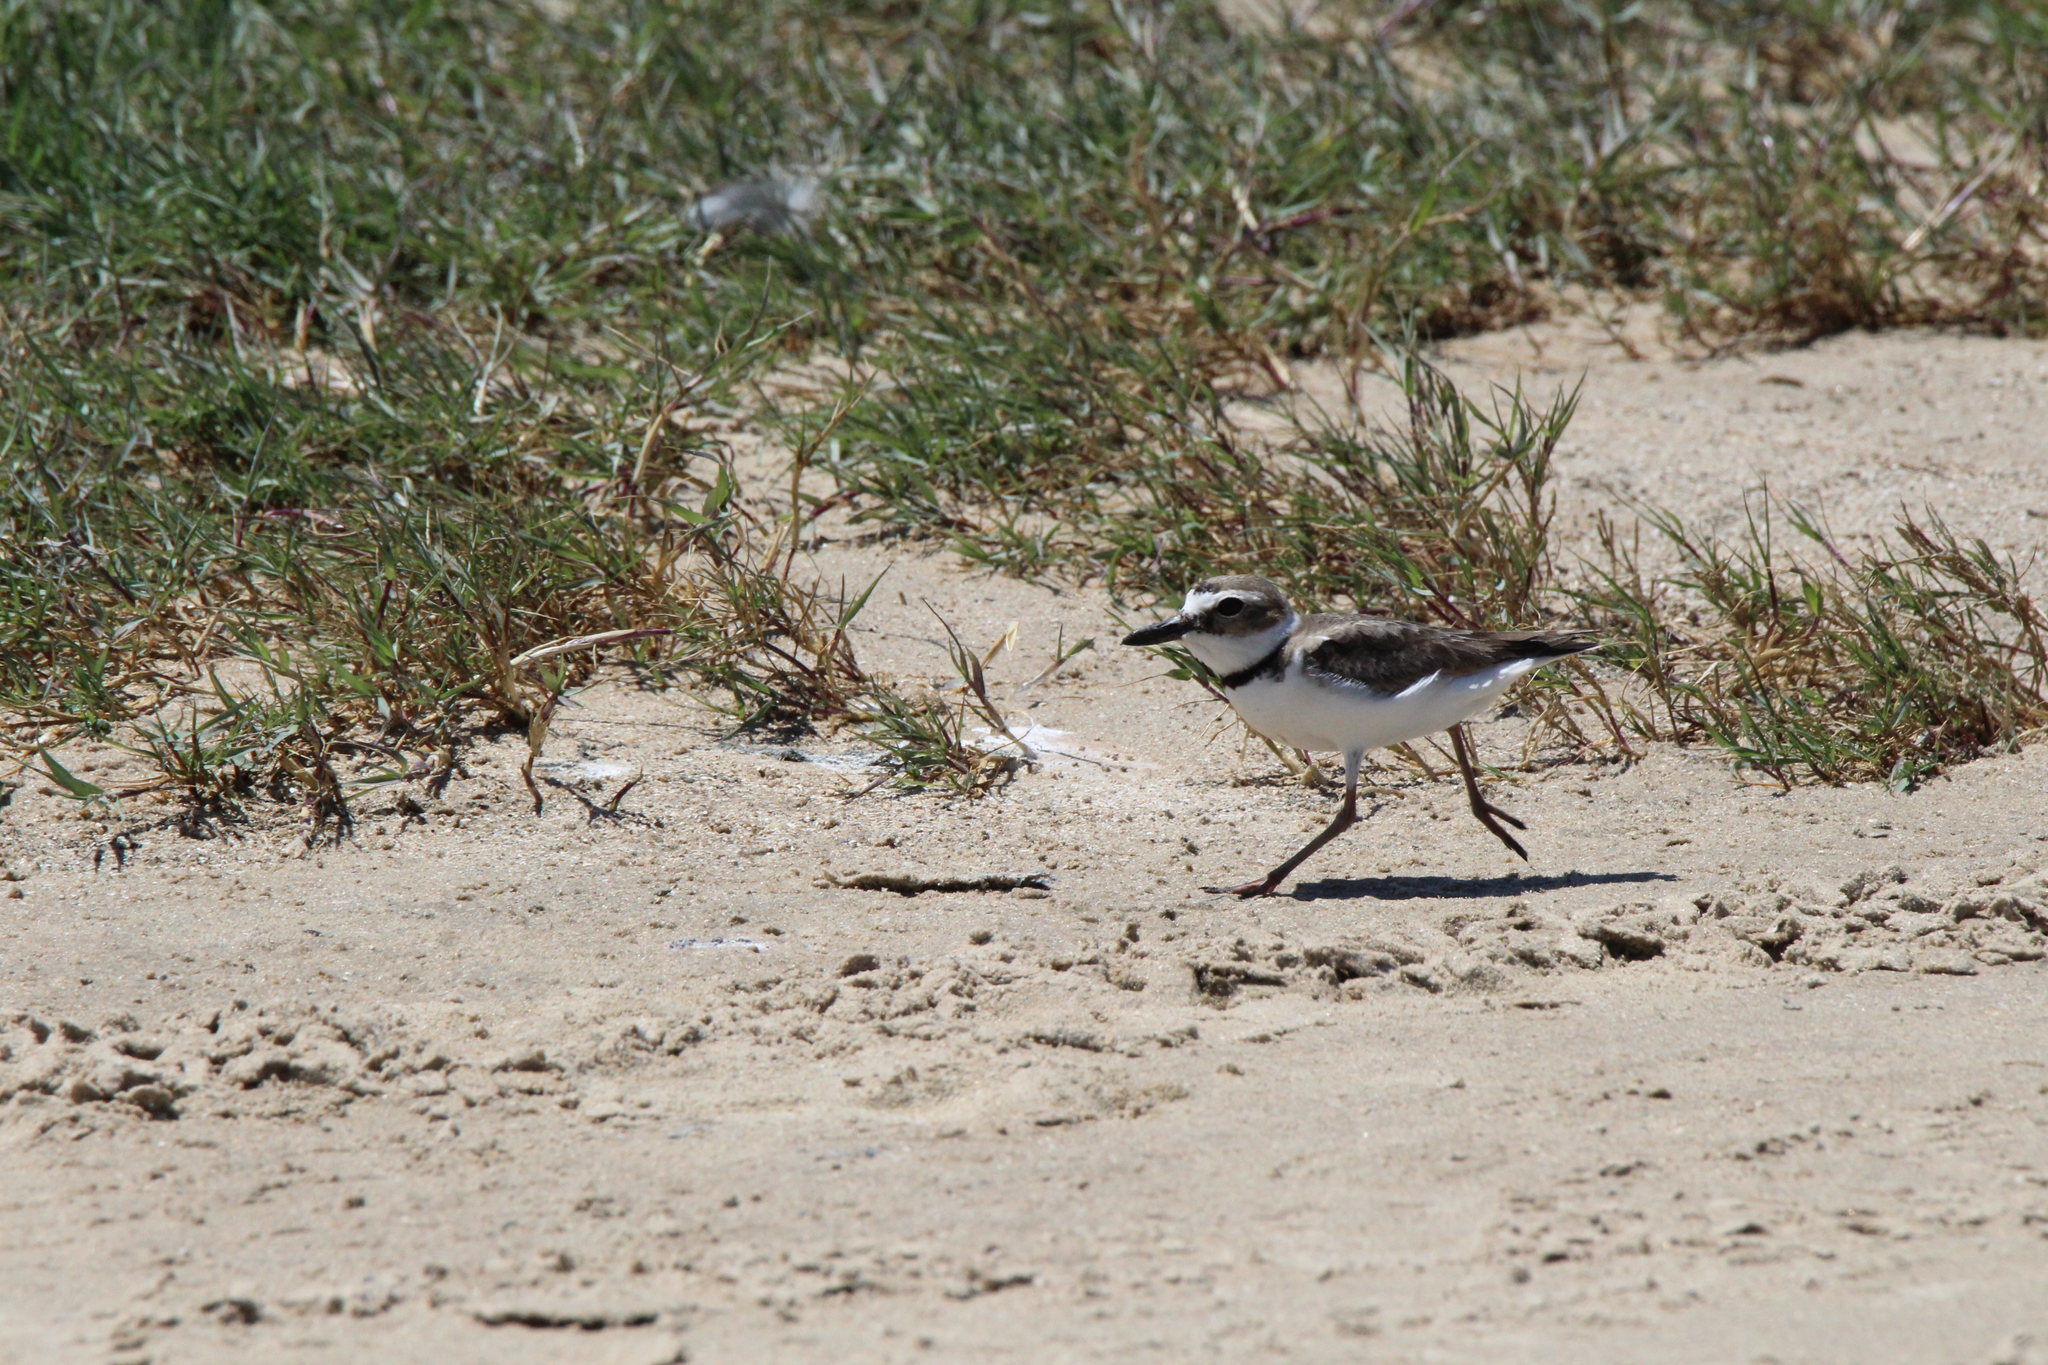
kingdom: Animalia
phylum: Chordata
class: Aves
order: Charadriiformes
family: Charadriidae
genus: Anarhynchus
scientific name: Anarhynchus
